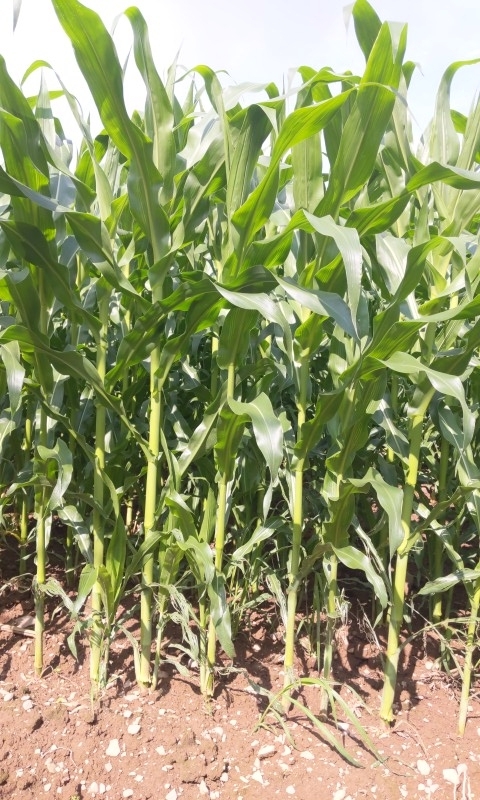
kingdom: Plantae
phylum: Tracheophyta
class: Magnoliopsida
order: Caryophyllales
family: Phytolaccaceae
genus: Phytolacca
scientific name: Phytolacca americana
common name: American pokeweed
